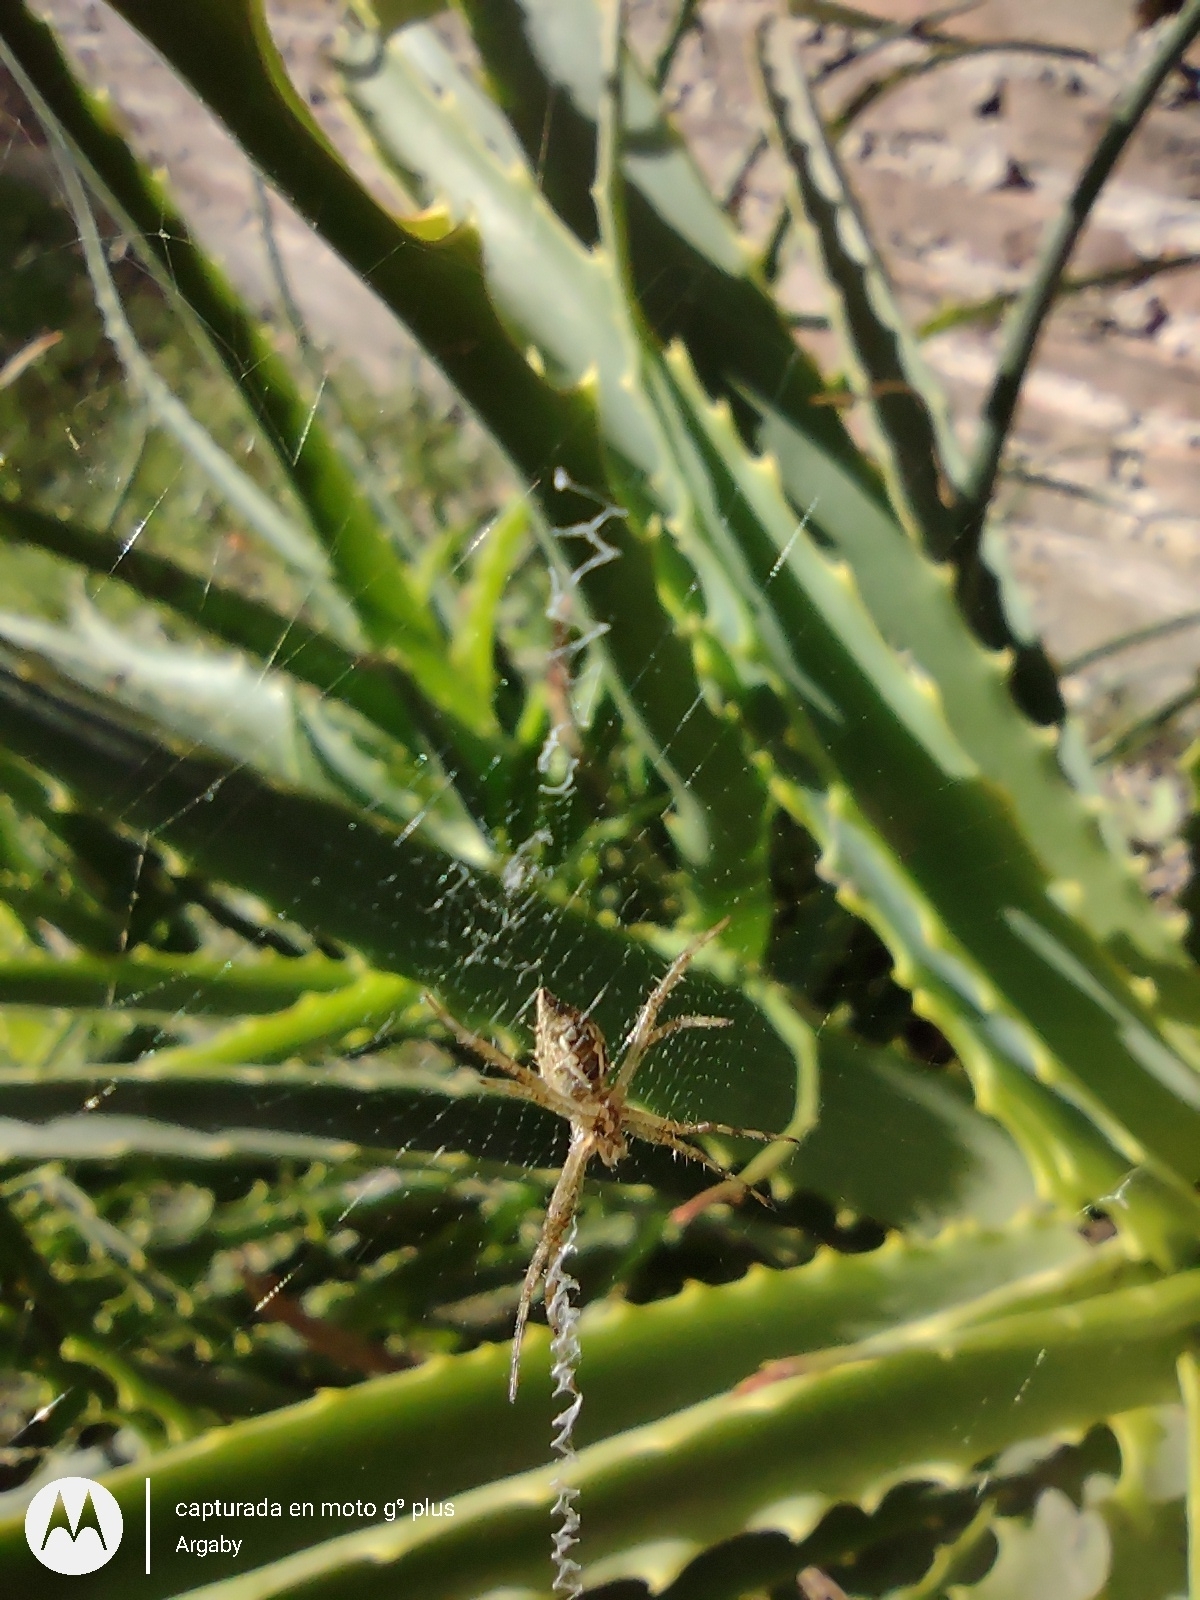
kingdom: Animalia
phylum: Arthropoda
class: Arachnida
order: Araneae
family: Araneidae
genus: Argiope
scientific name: Argiope argentata
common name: Orb weavers
